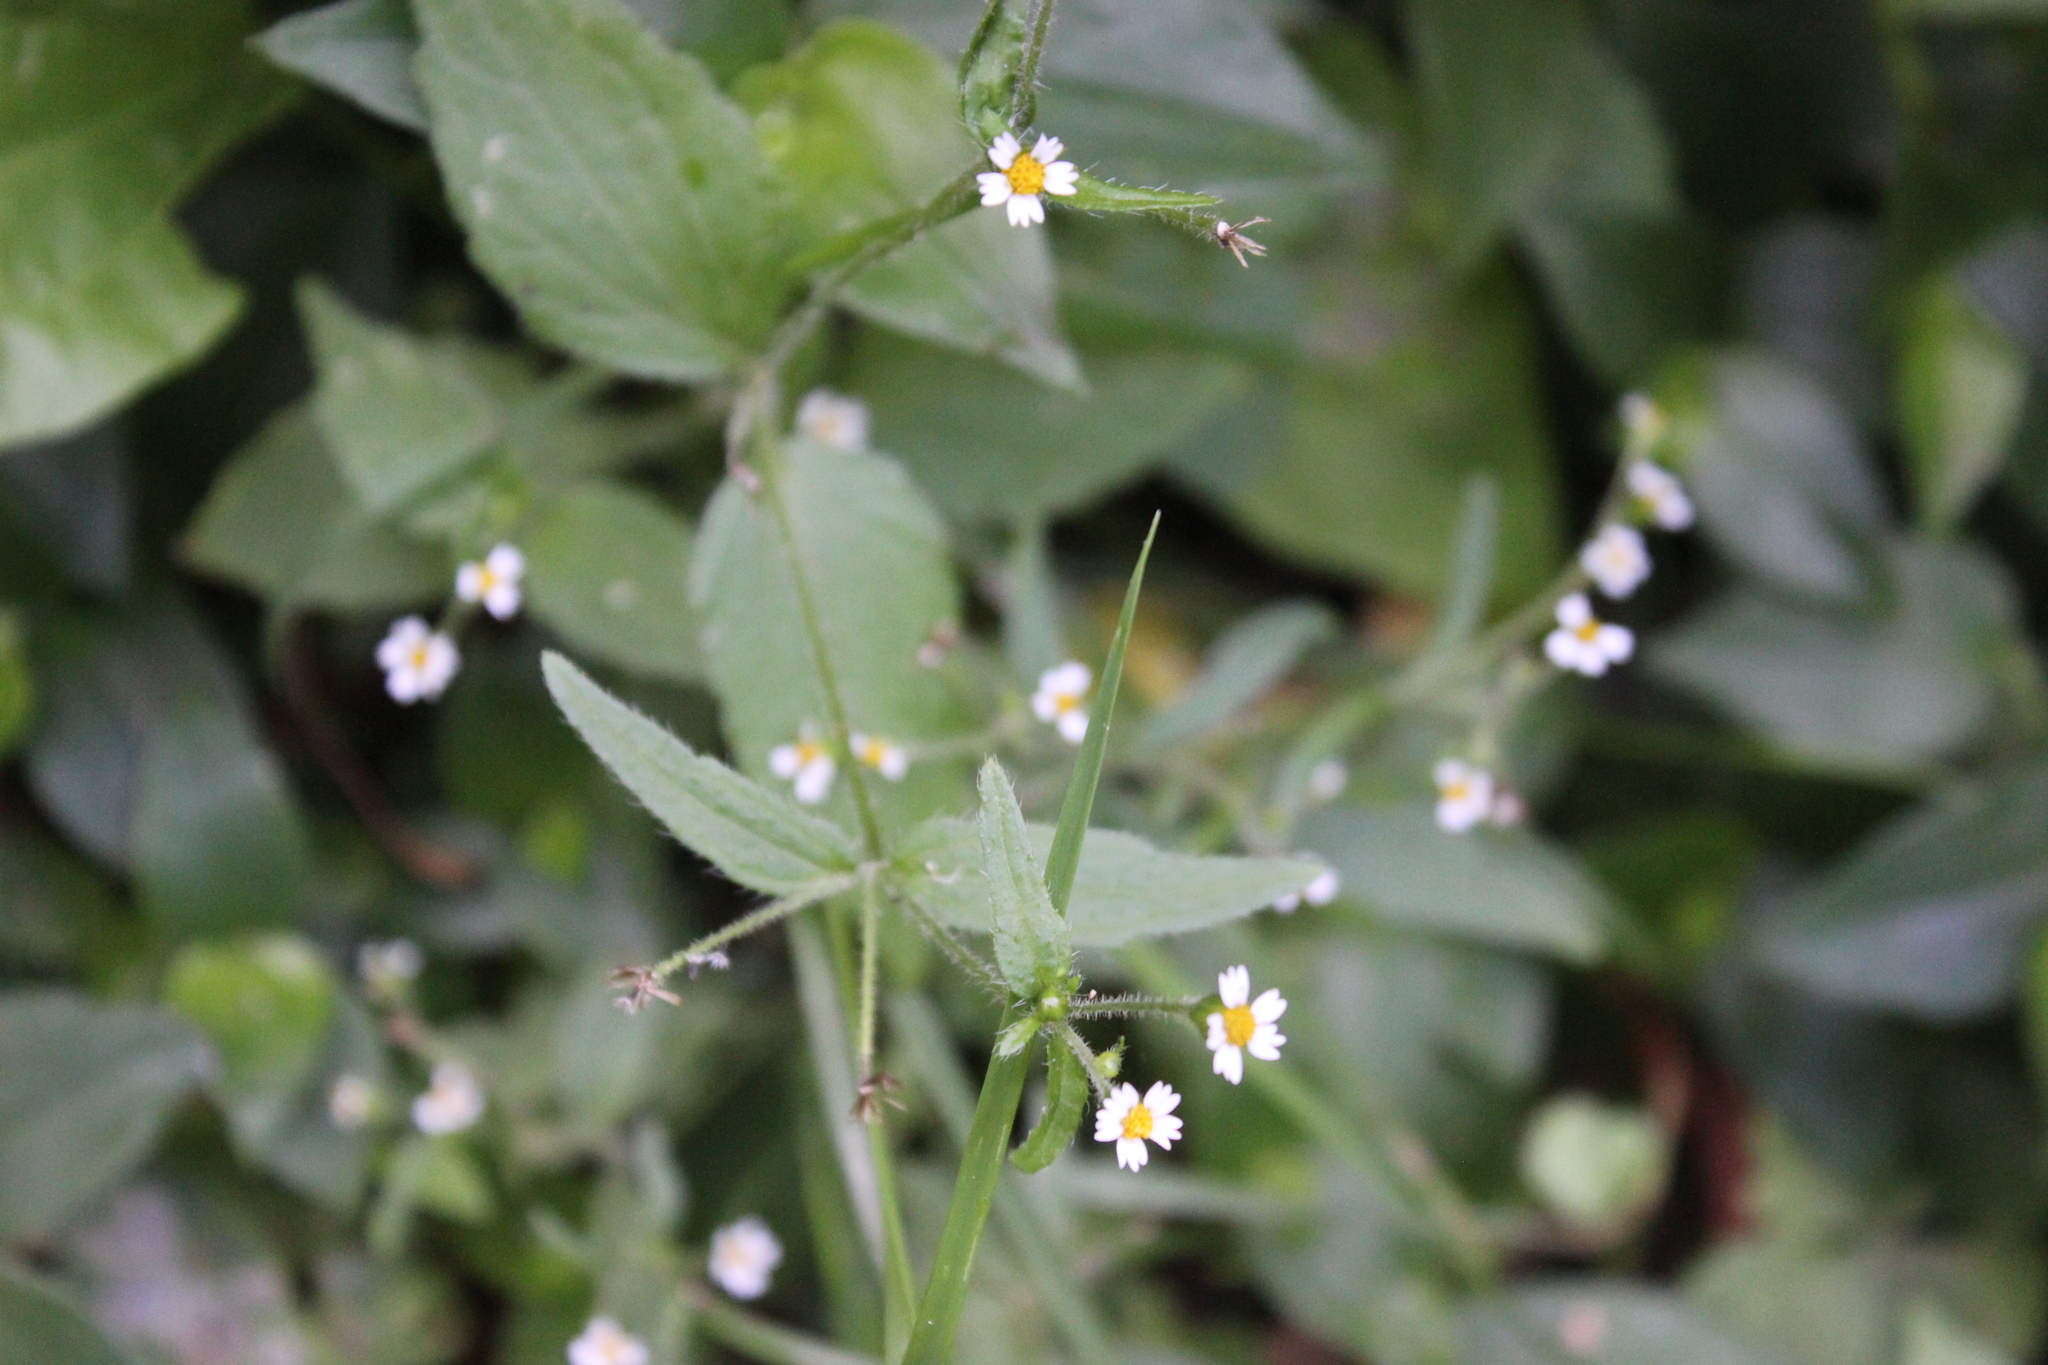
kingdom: Plantae
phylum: Tracheophyta
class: Magnoliopsida
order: Asterales
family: Asteraceae
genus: Galinsoga
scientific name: Galinsoga parviflora
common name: Gallant soldier
